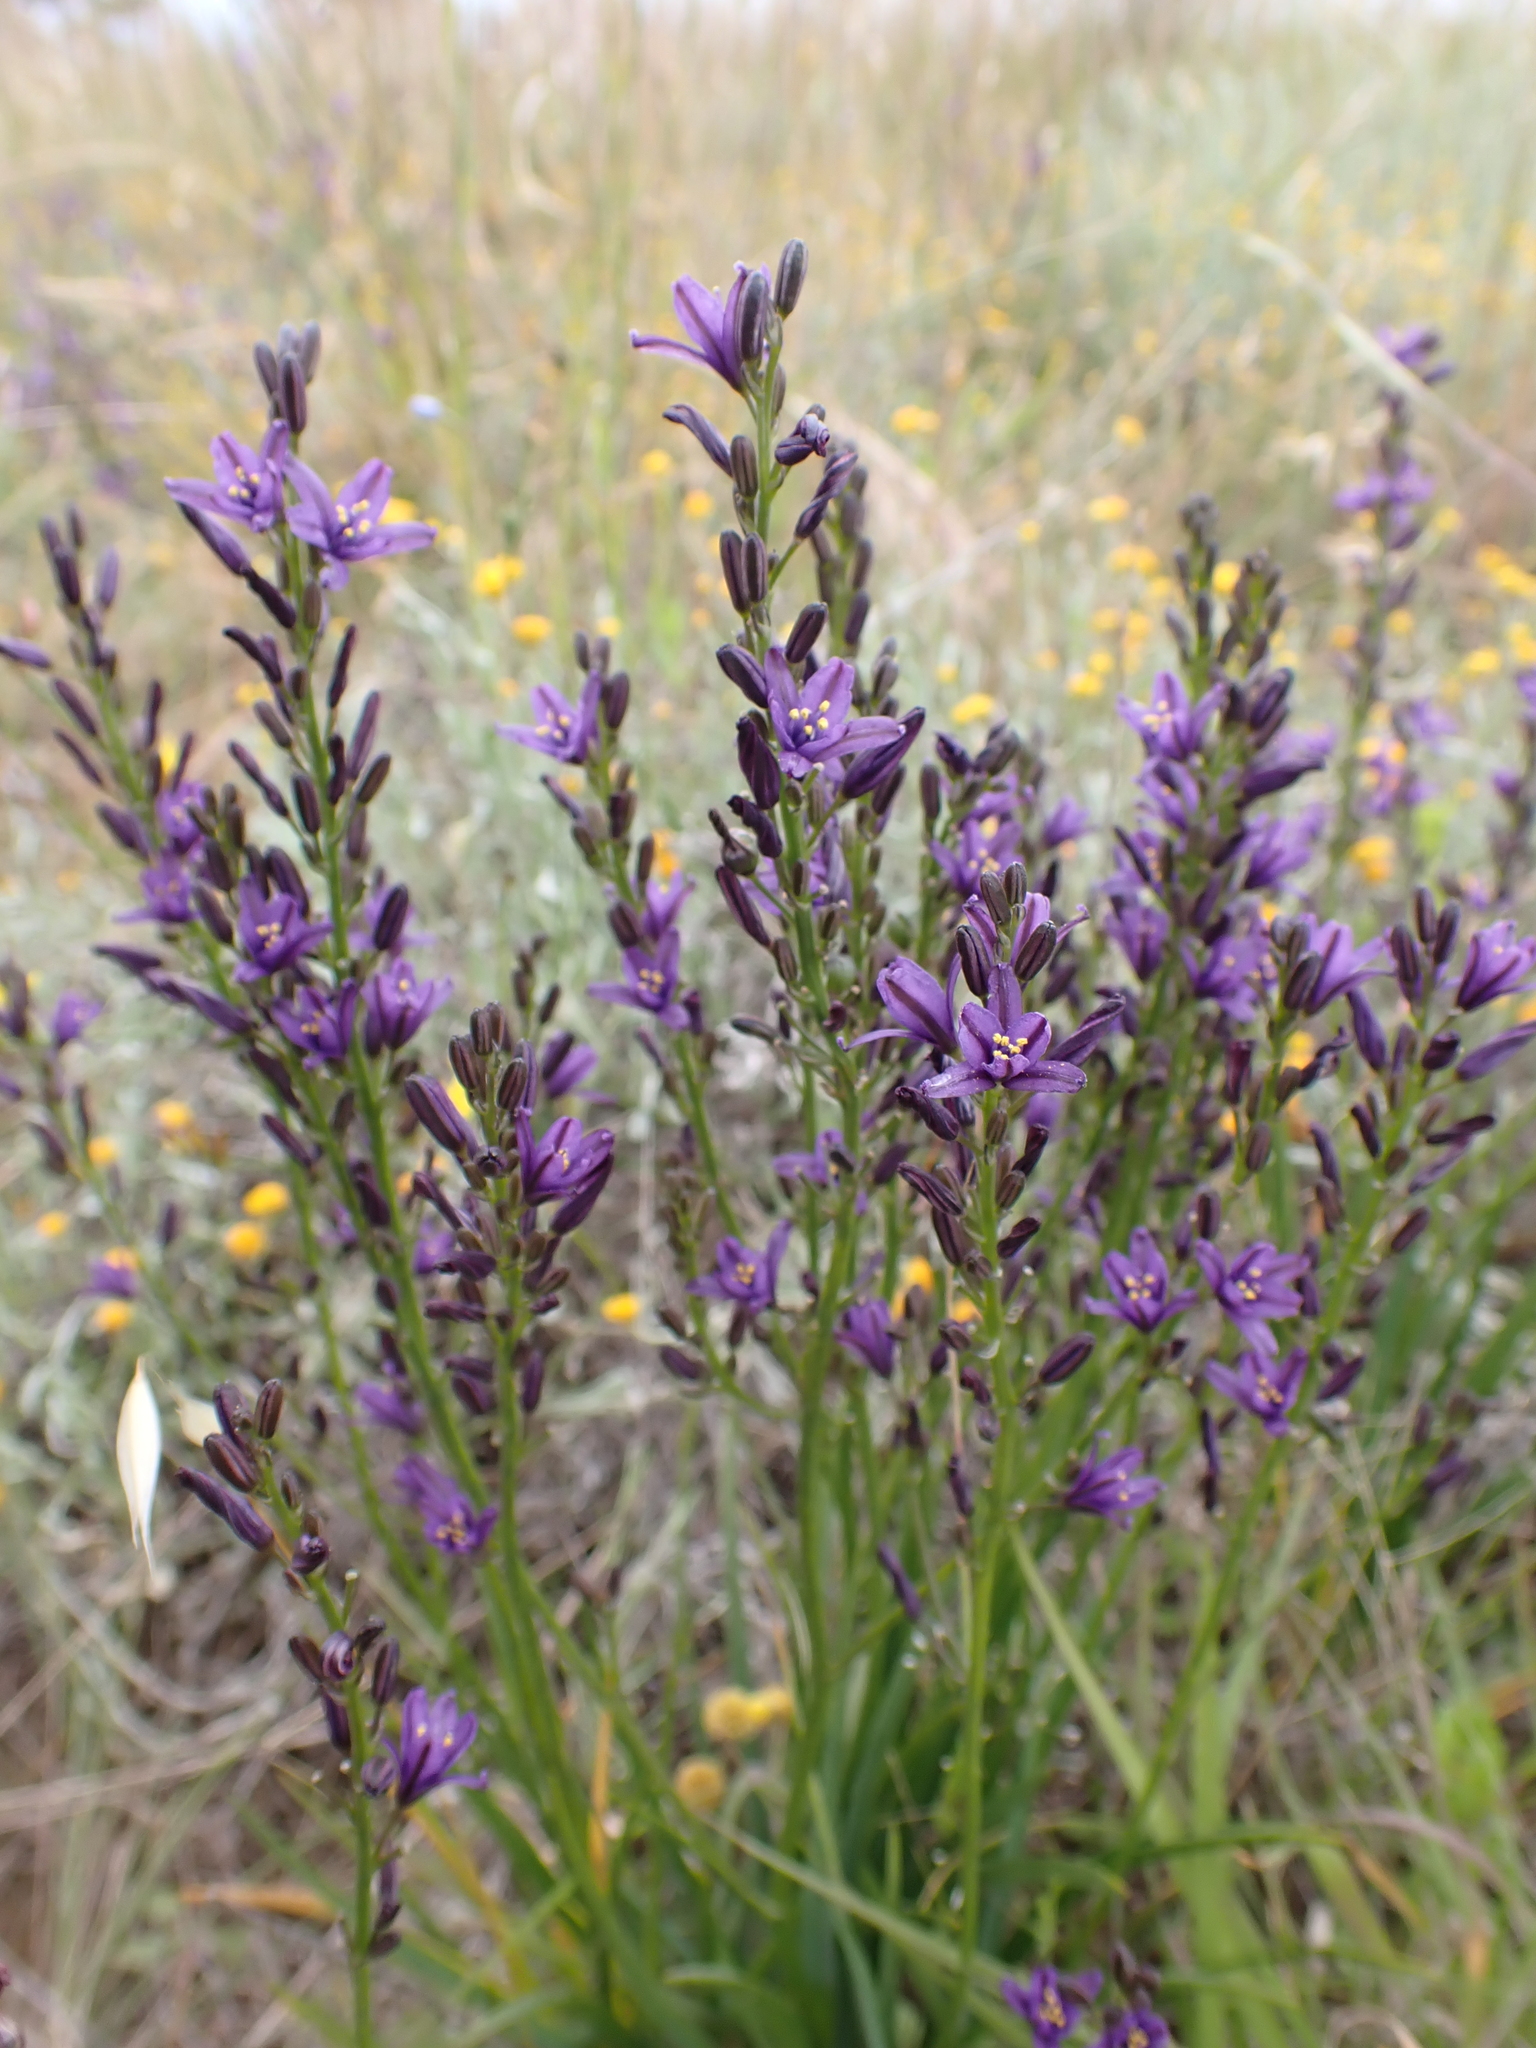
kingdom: Plantae
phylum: Tracheophyta
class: Liliopsida
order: Asparagales
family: Asphodelaceae
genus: Caesia
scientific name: Caesia calliantha
